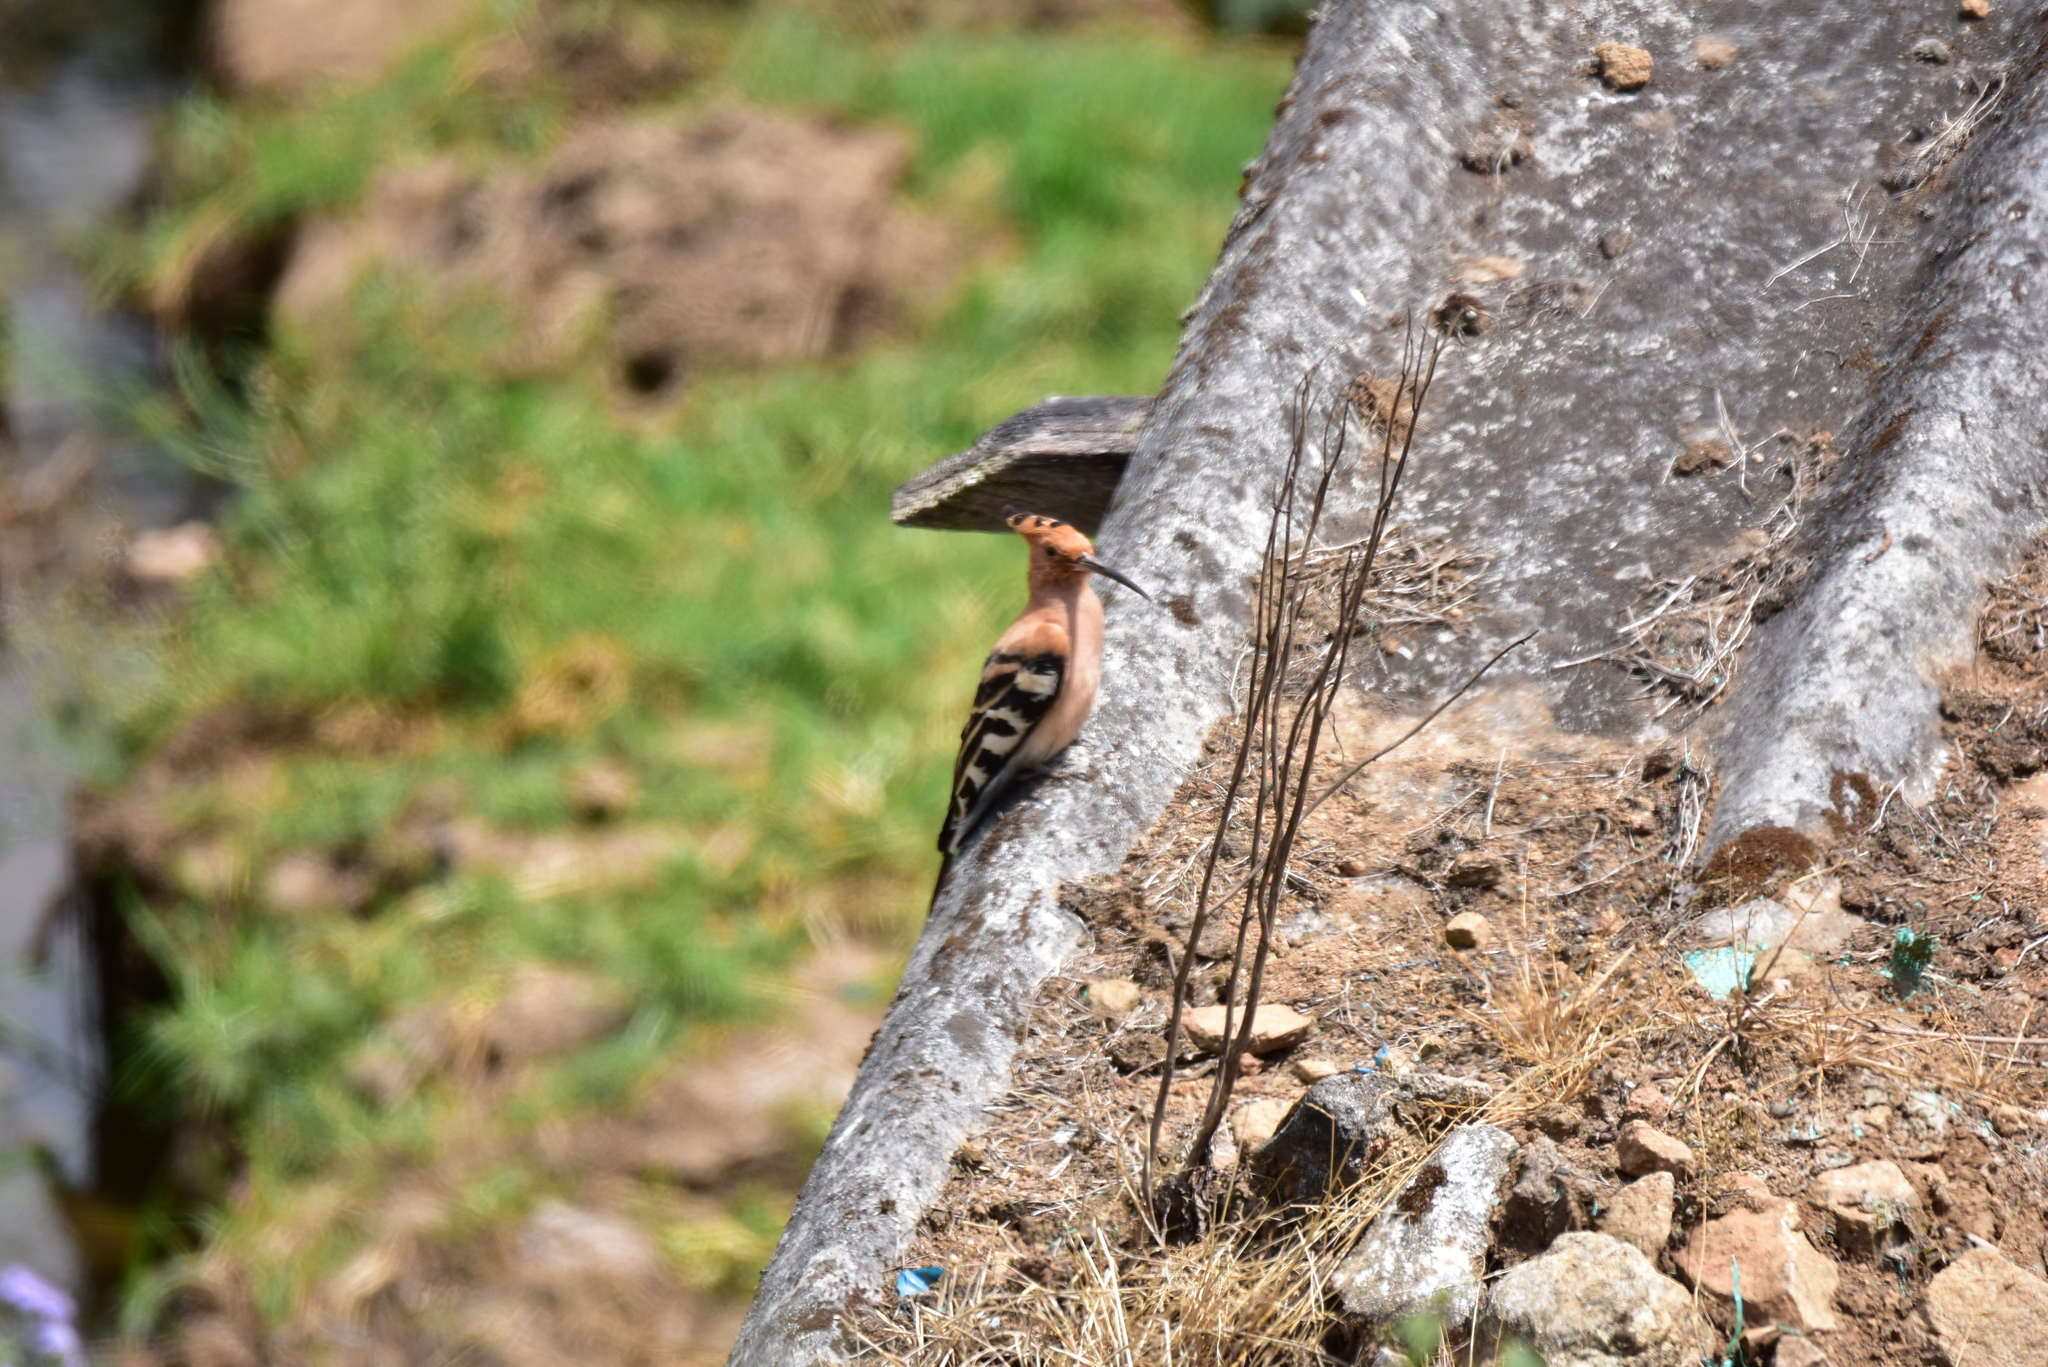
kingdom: Animalia
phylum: Chordata
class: Aves
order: Bucerotiformes
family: Upupidae
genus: Upupa
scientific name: Upupa epops
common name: Eurasian hoopoe
